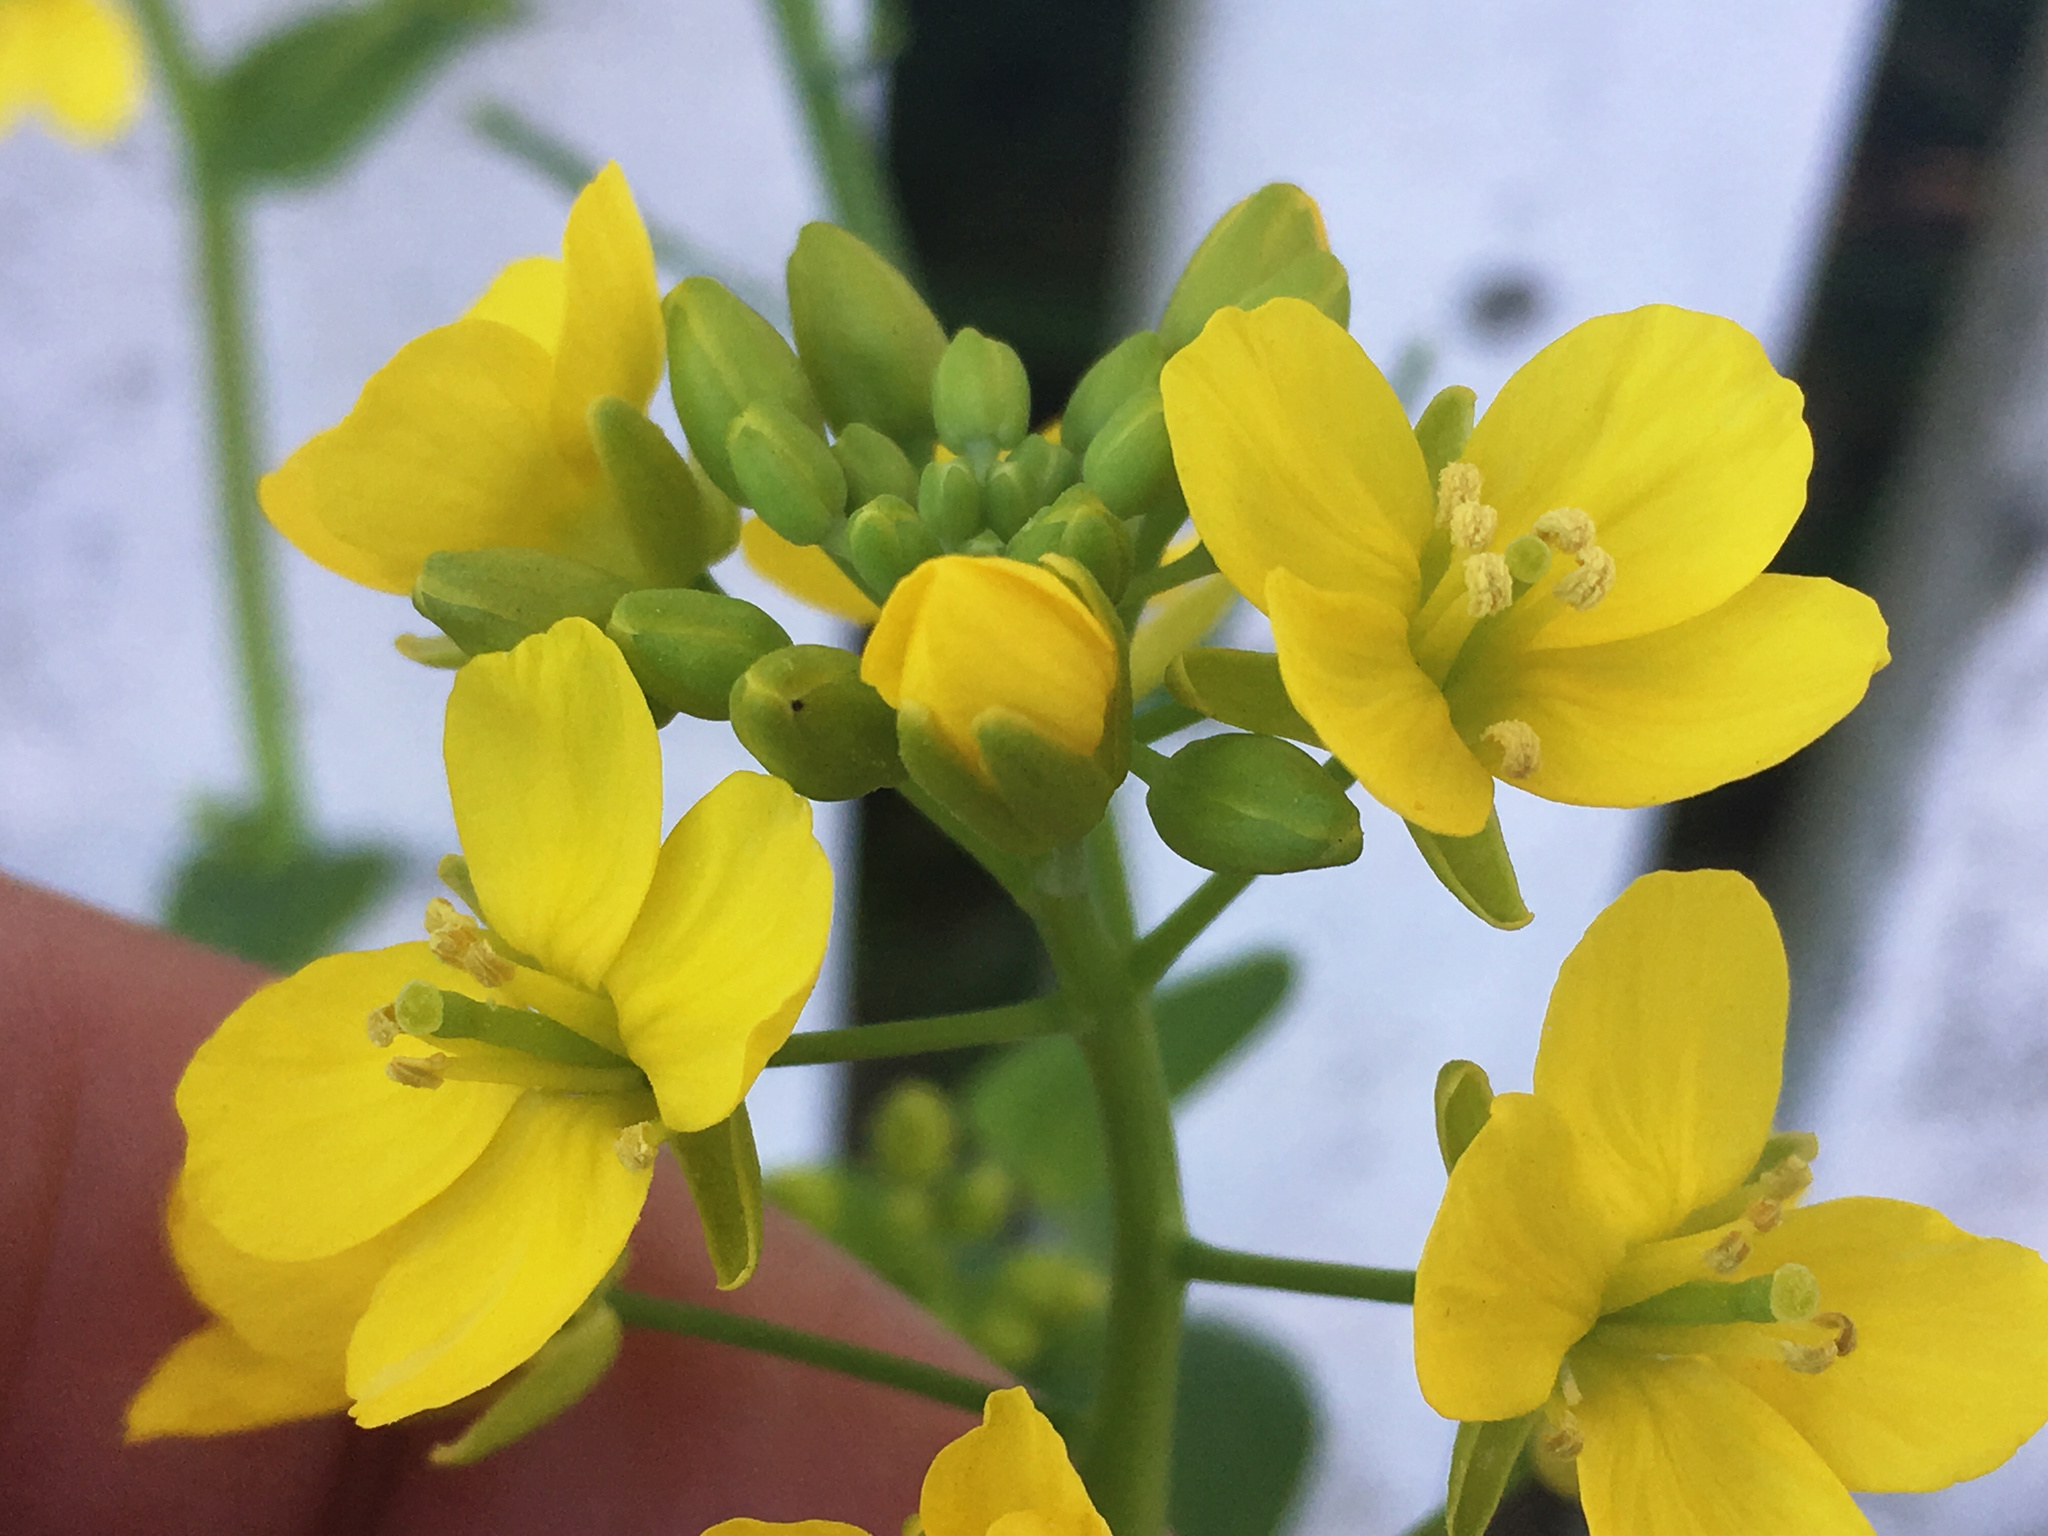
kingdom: Plantae
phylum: Tracheophyta
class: Magnoliopsida
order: Brassicales
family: Brassicaceae
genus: Brassica
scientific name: Brassica oleracea
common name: Cabbage
